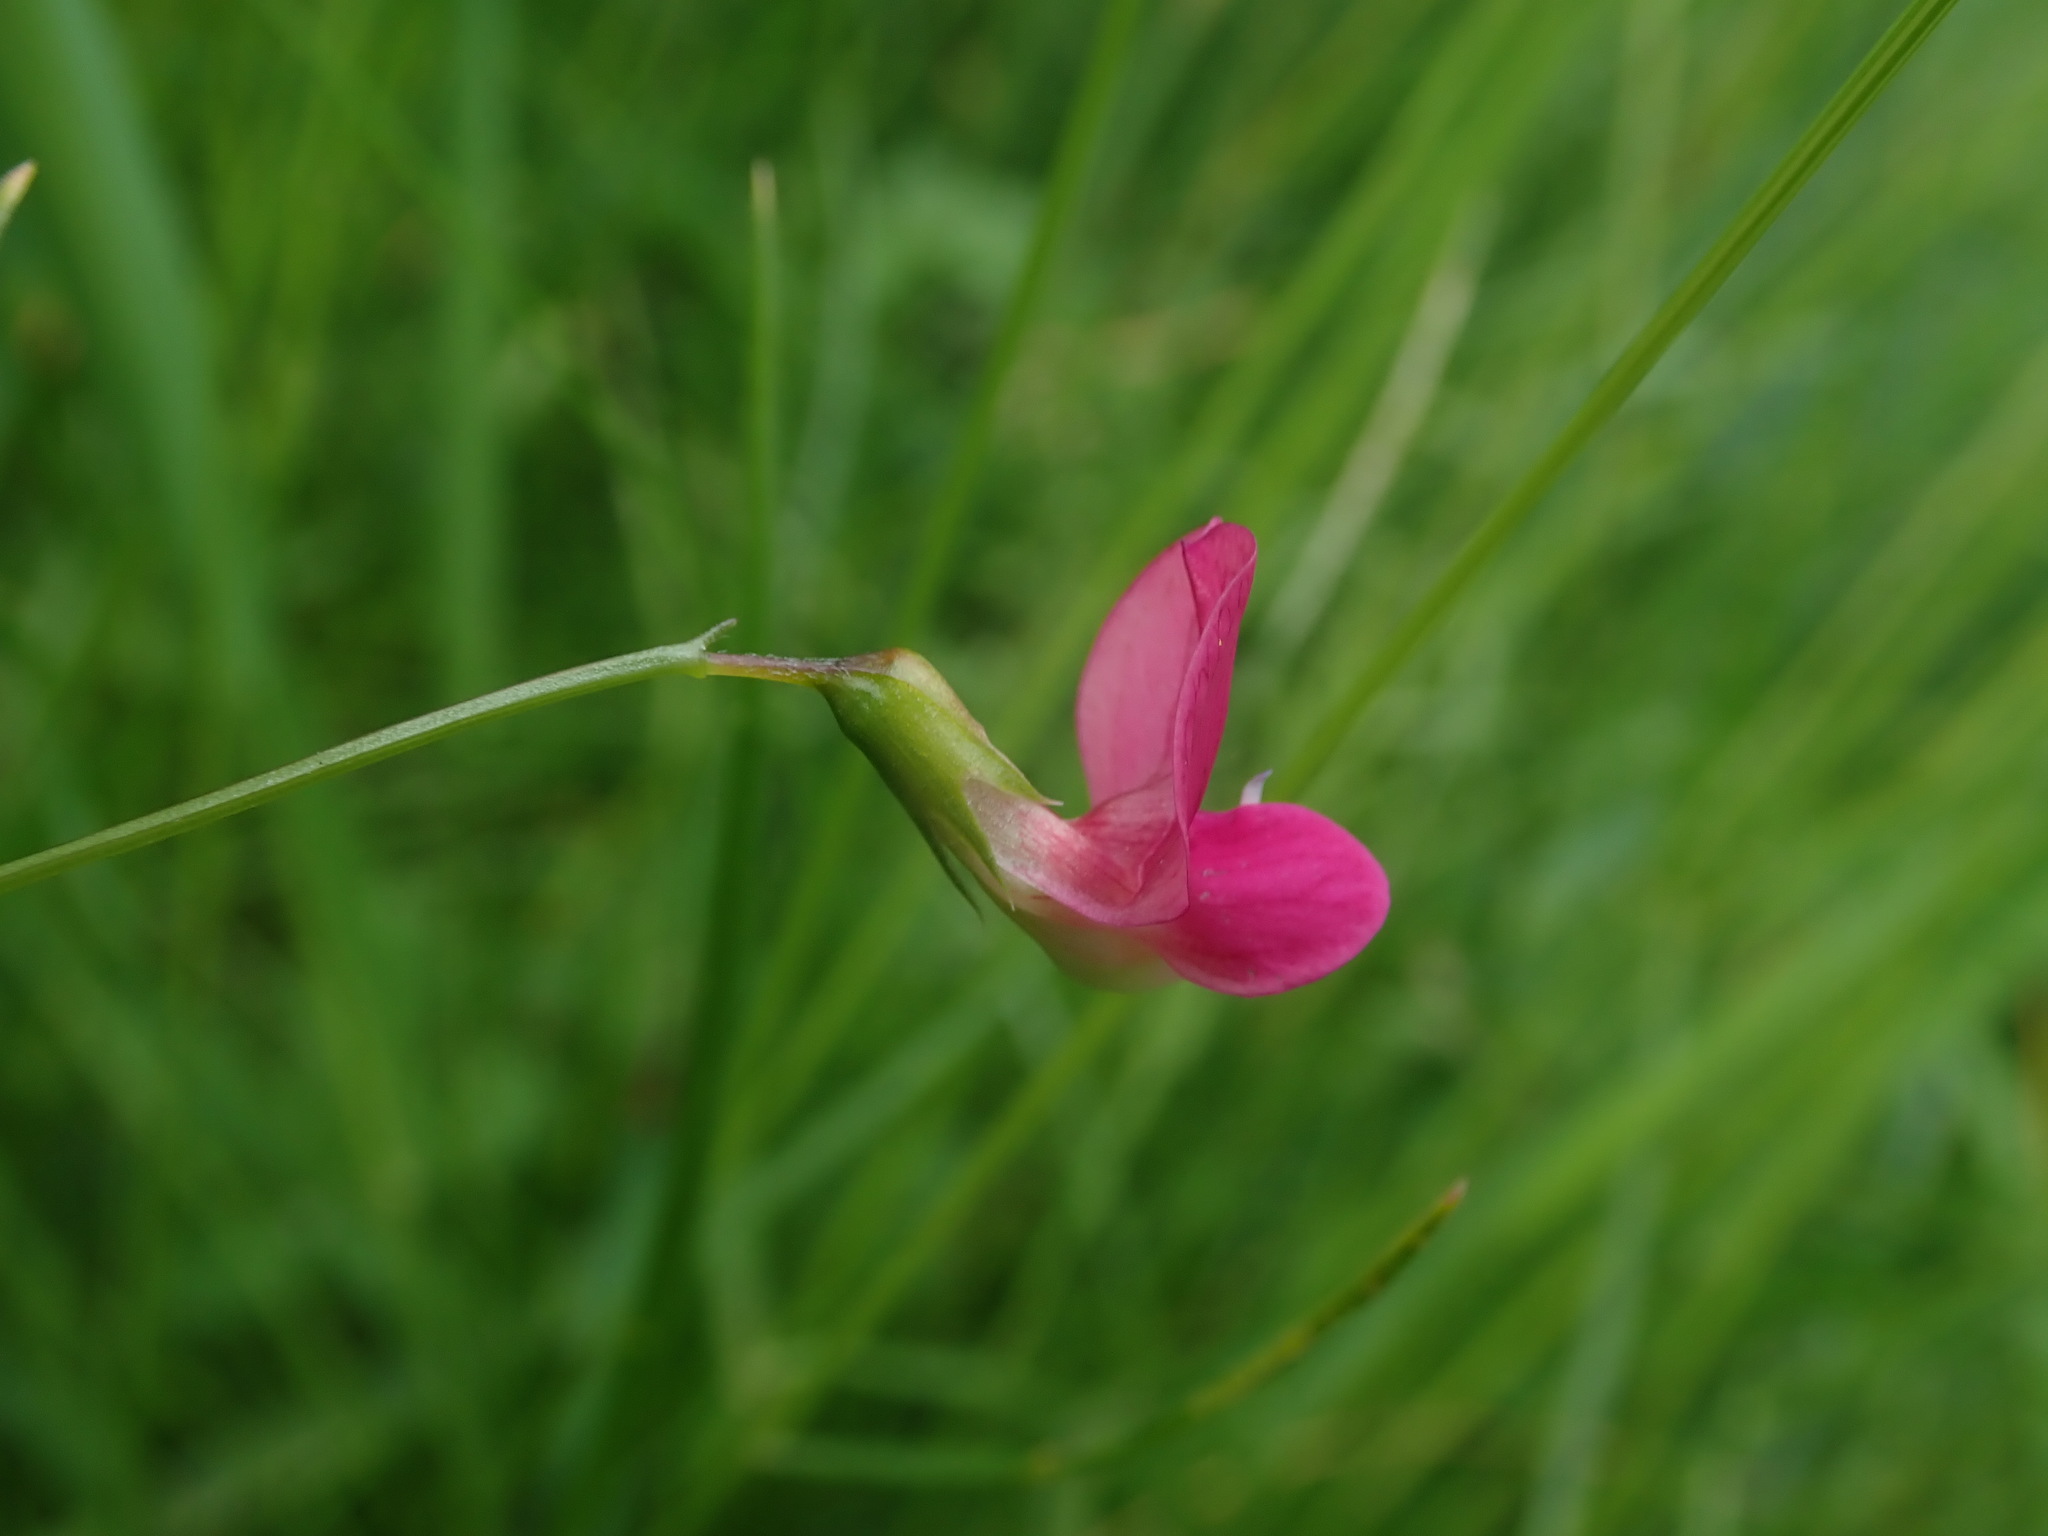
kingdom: Plantae
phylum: Tracheophyta
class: Magnoliopsida
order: Fabales
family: Fabaceae
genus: Lathyrus
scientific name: Lathyrus nissolia
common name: Grass vetchling
